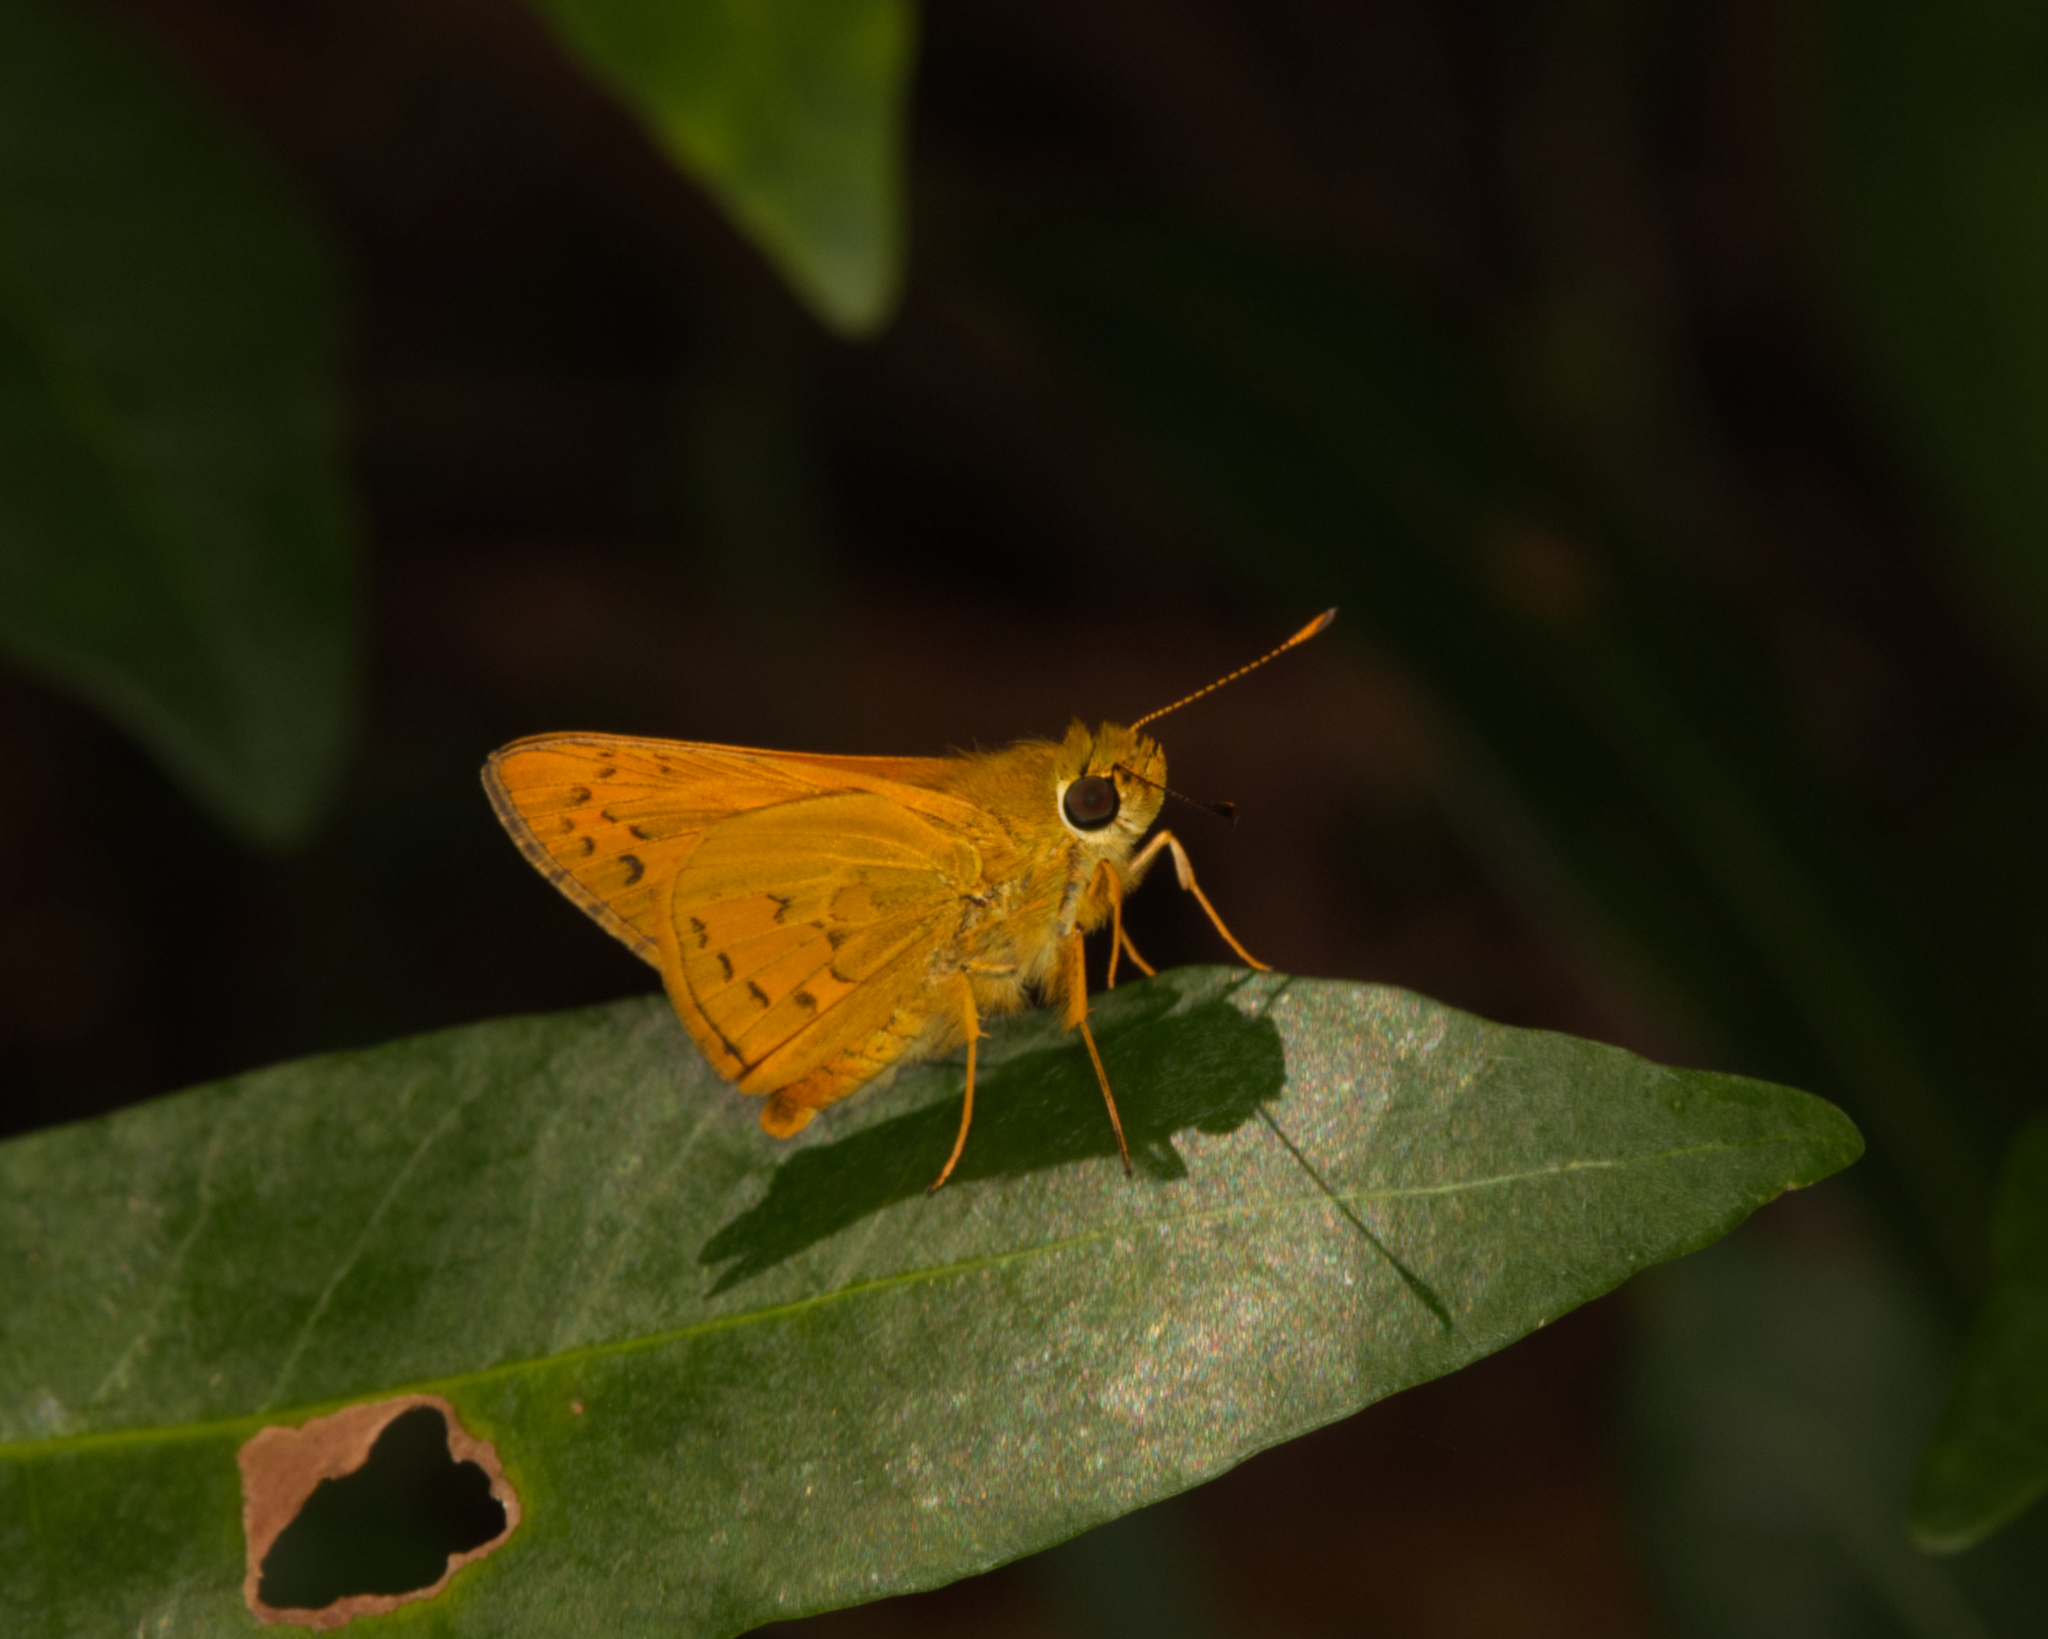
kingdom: Animalia
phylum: Arthropoda
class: Insecta
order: Lepidoptera
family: Hesperiidae
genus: Telicota
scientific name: Telicota colon
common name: Pale palm dart
